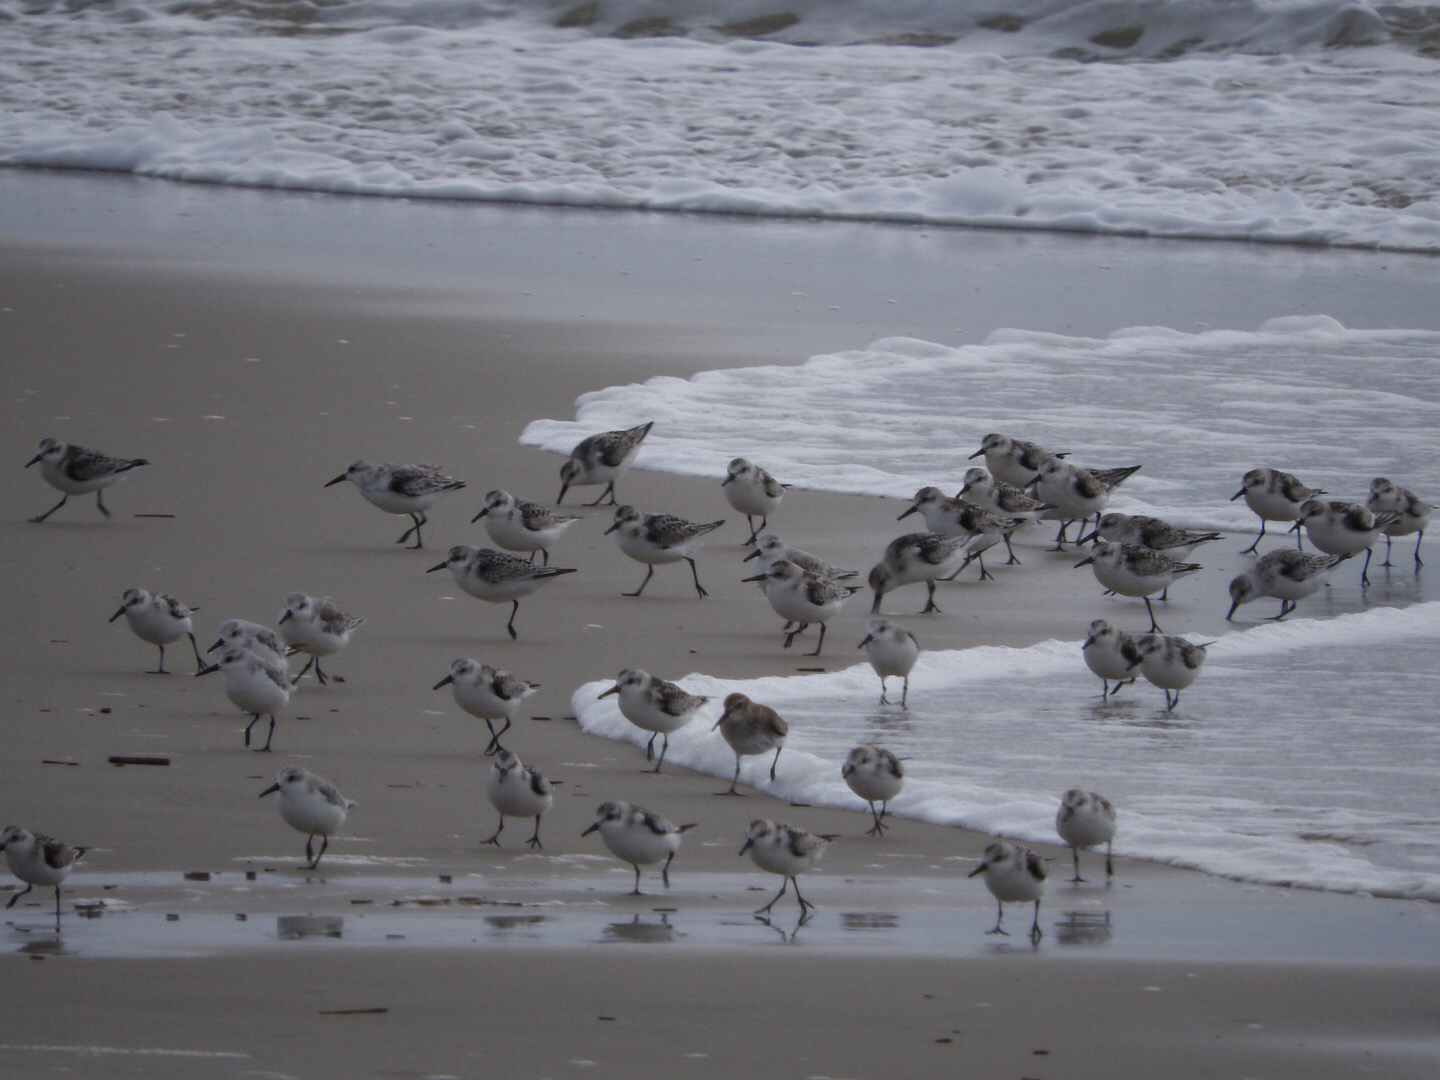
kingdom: Animalia
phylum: Chordata
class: Aves
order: Charadriiformes
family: Scolopacidae
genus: Calidris
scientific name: Calidris alba
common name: Sanderling
